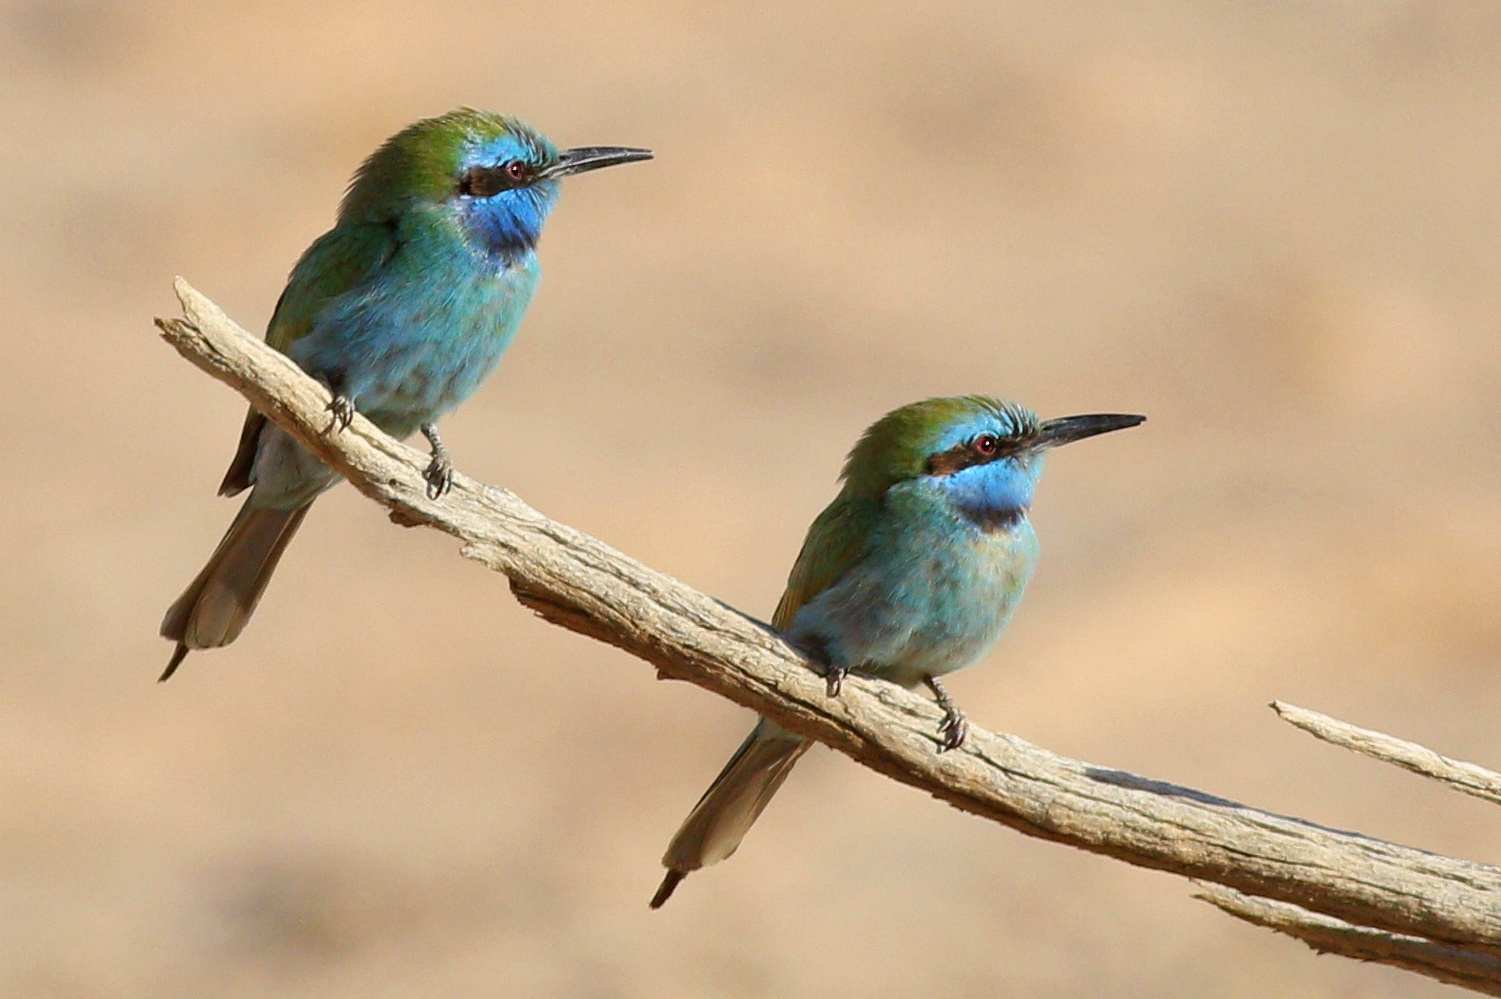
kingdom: Animalia
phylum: Chordata
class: Aves
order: Coraciiformes
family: Meropidae
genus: Merops
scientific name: Merops cyanophrys
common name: Arabian green bee-eater
